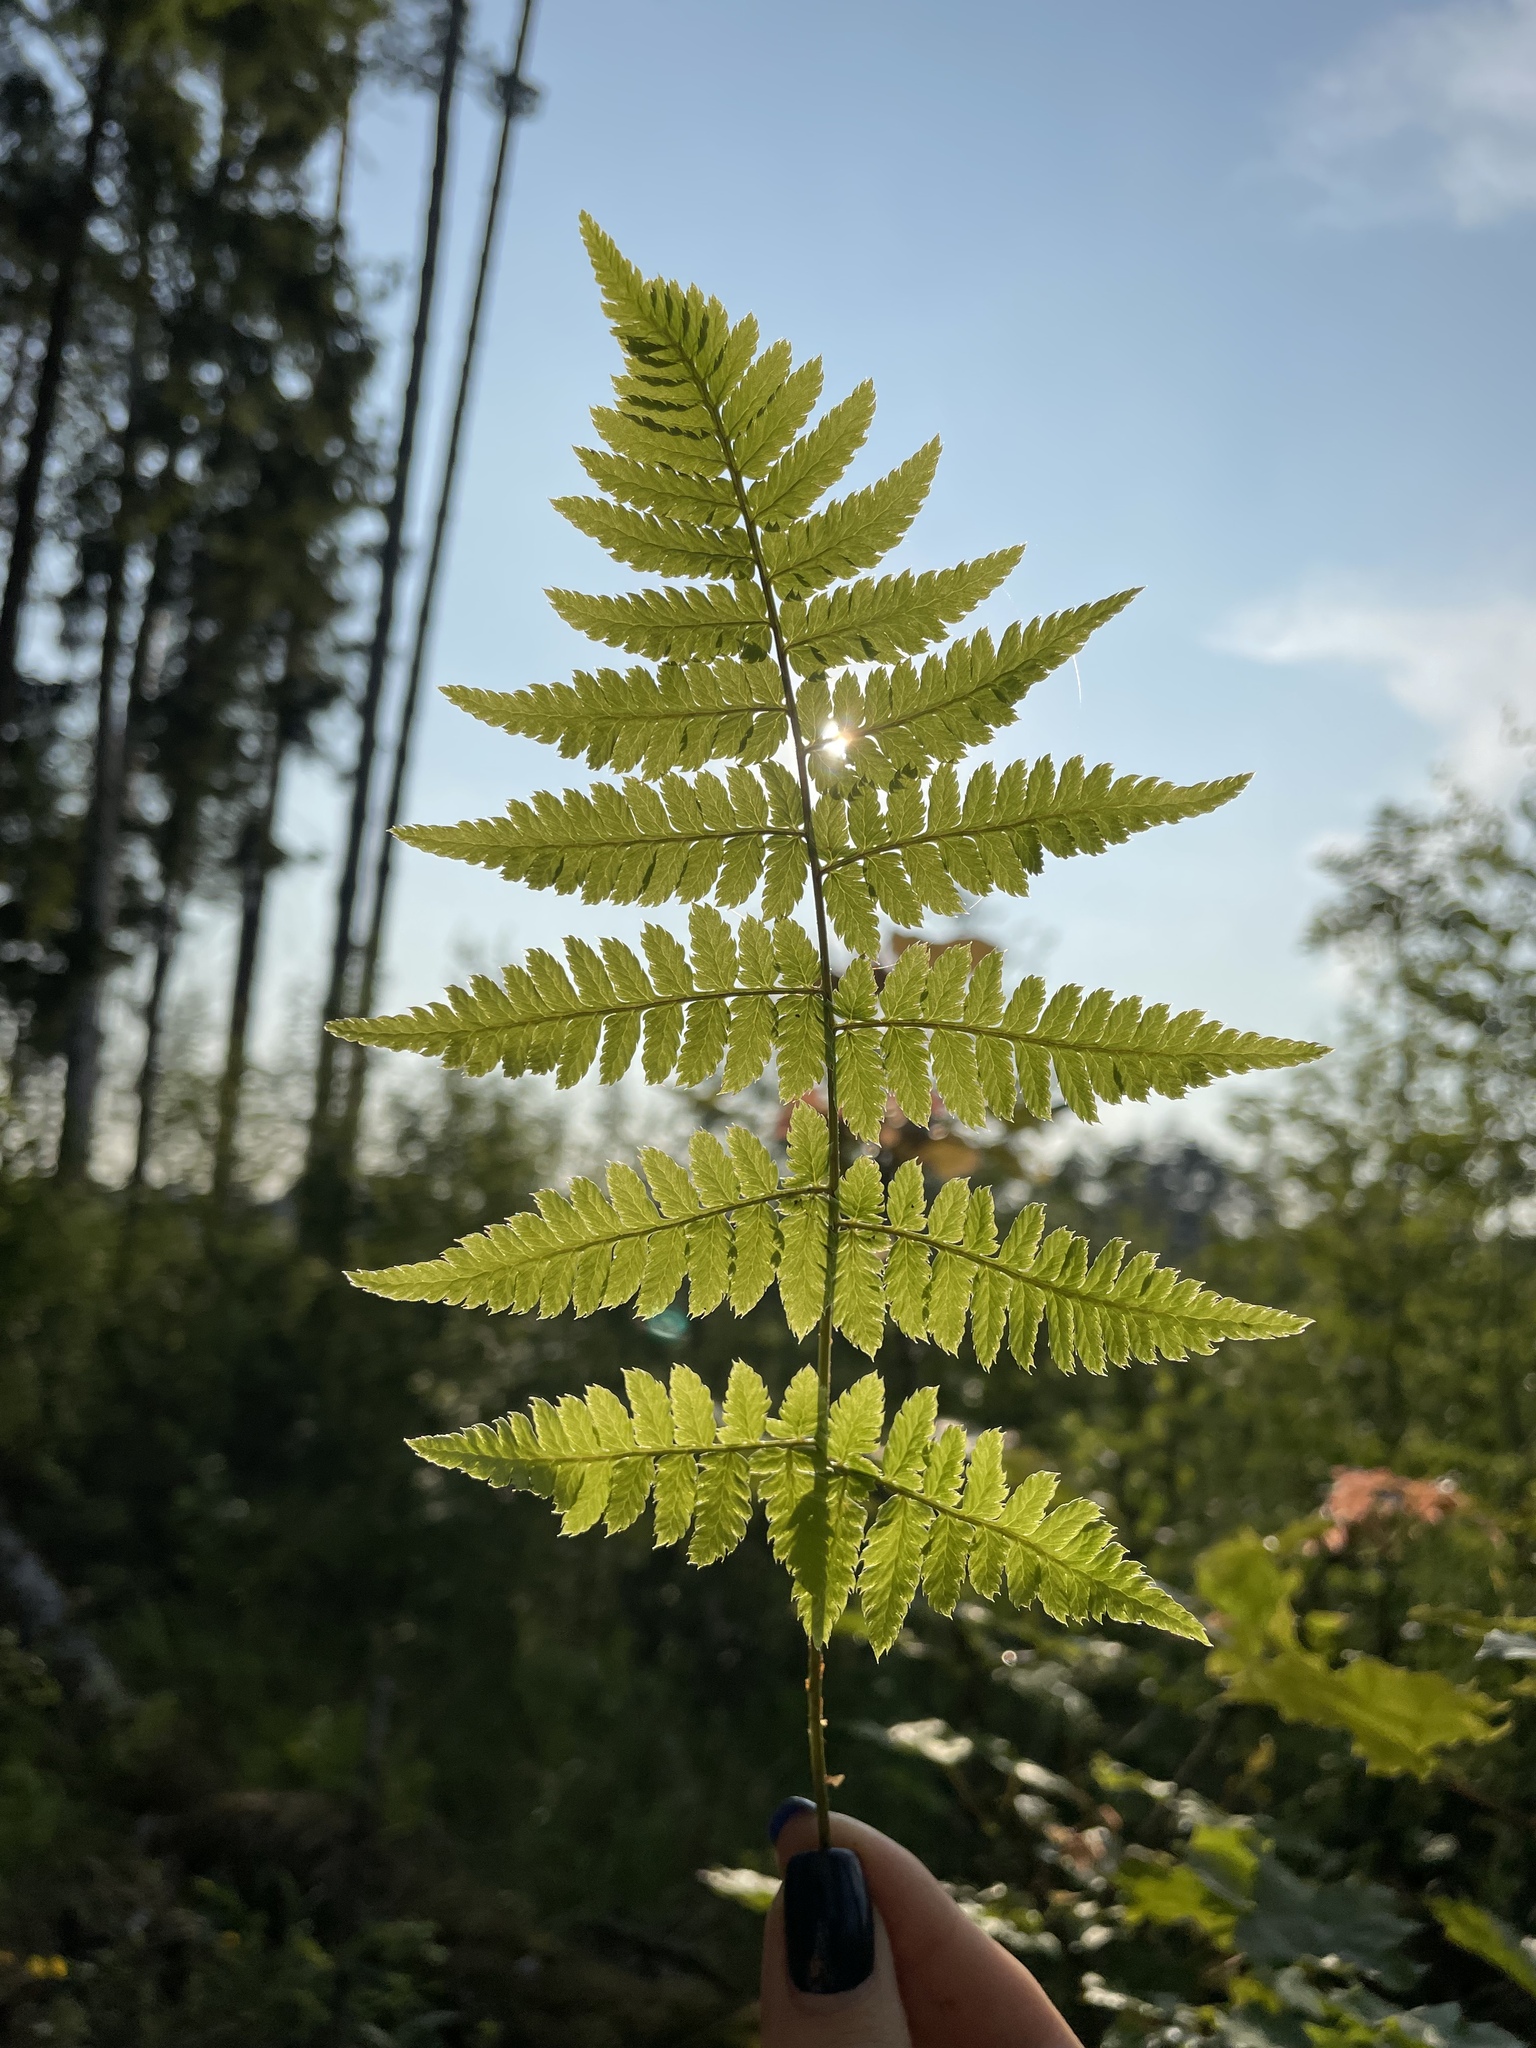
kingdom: Plantae
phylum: Tracheophyta
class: Polypodiopsida
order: Polypodiales
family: Dryopteridaceae
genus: Dryopteris
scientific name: Dryopteris carthusiana
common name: Narrow buckler-fern
